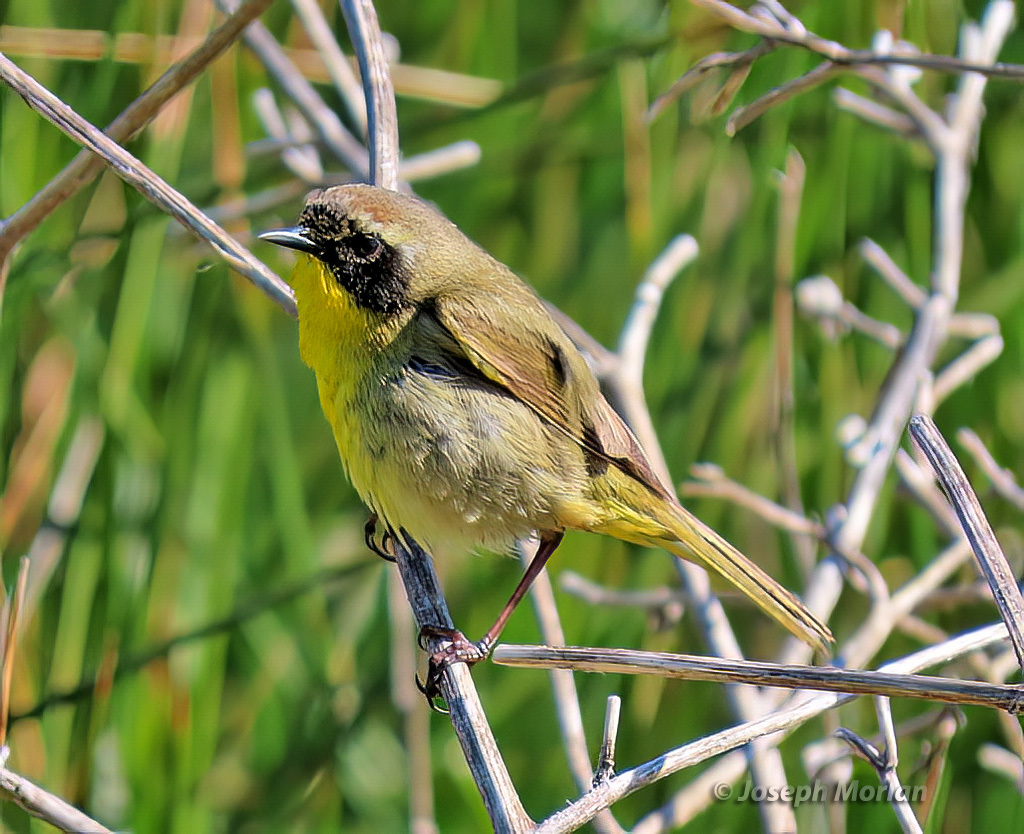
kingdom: Animalia
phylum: Chordata
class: Aves
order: Passeriformes
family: Parulidae
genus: Geothlypis
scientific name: Geothlypis trichas
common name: Common yellowthroat
